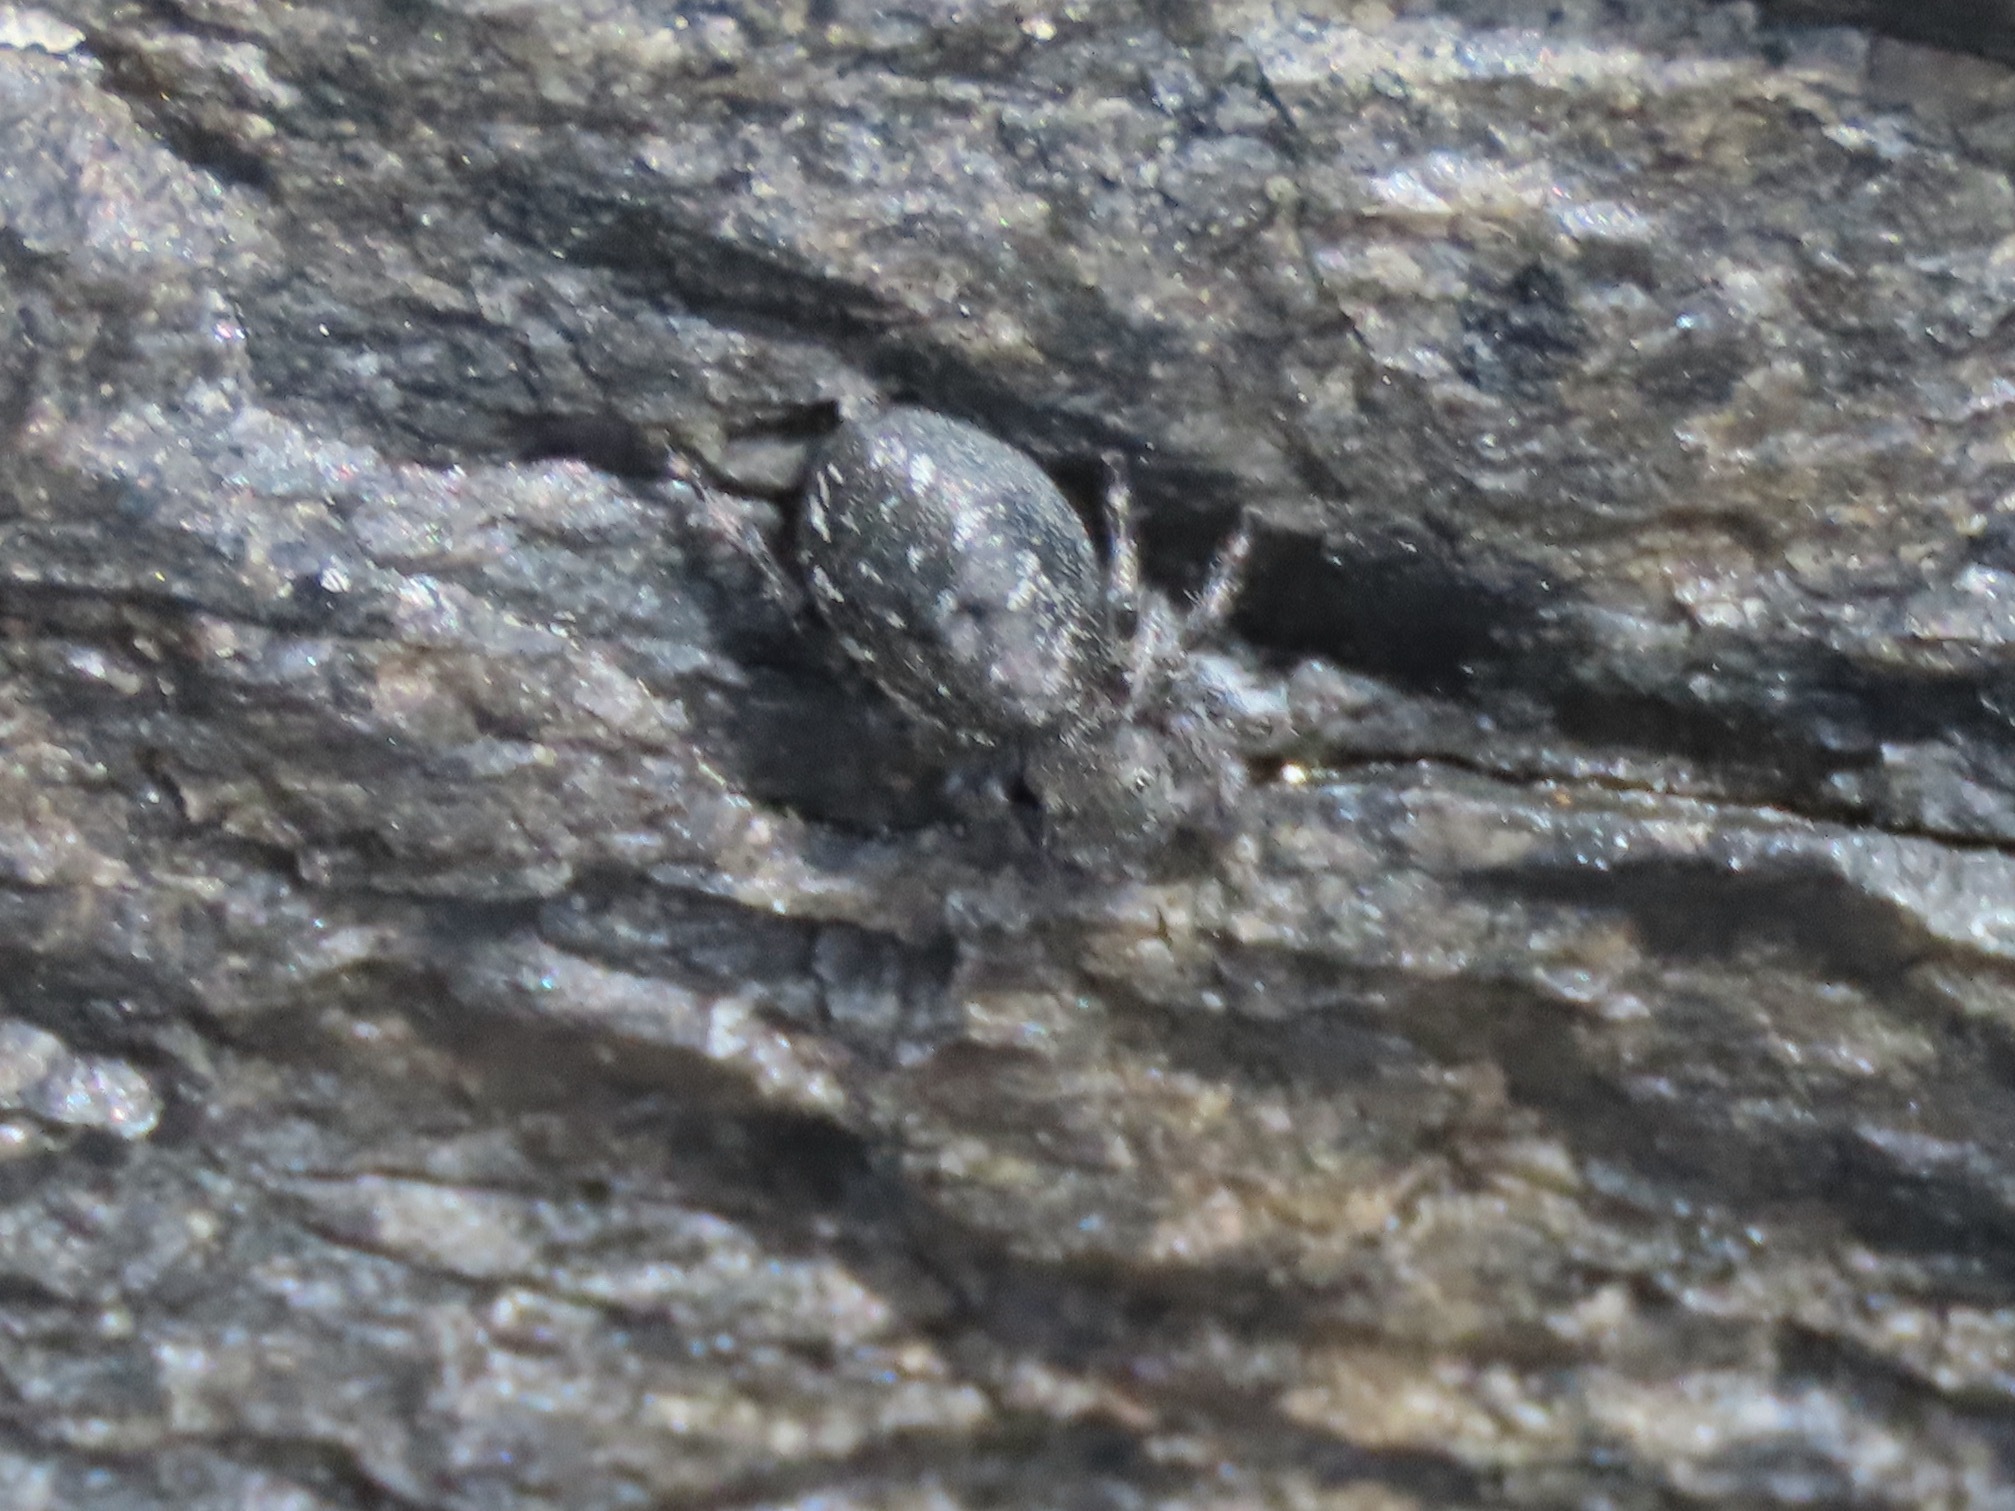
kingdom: Animalia
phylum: Arthropoda
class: Arachnida
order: Araneae
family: Salticidae
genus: Terralonus
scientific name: Terralonus californicus
